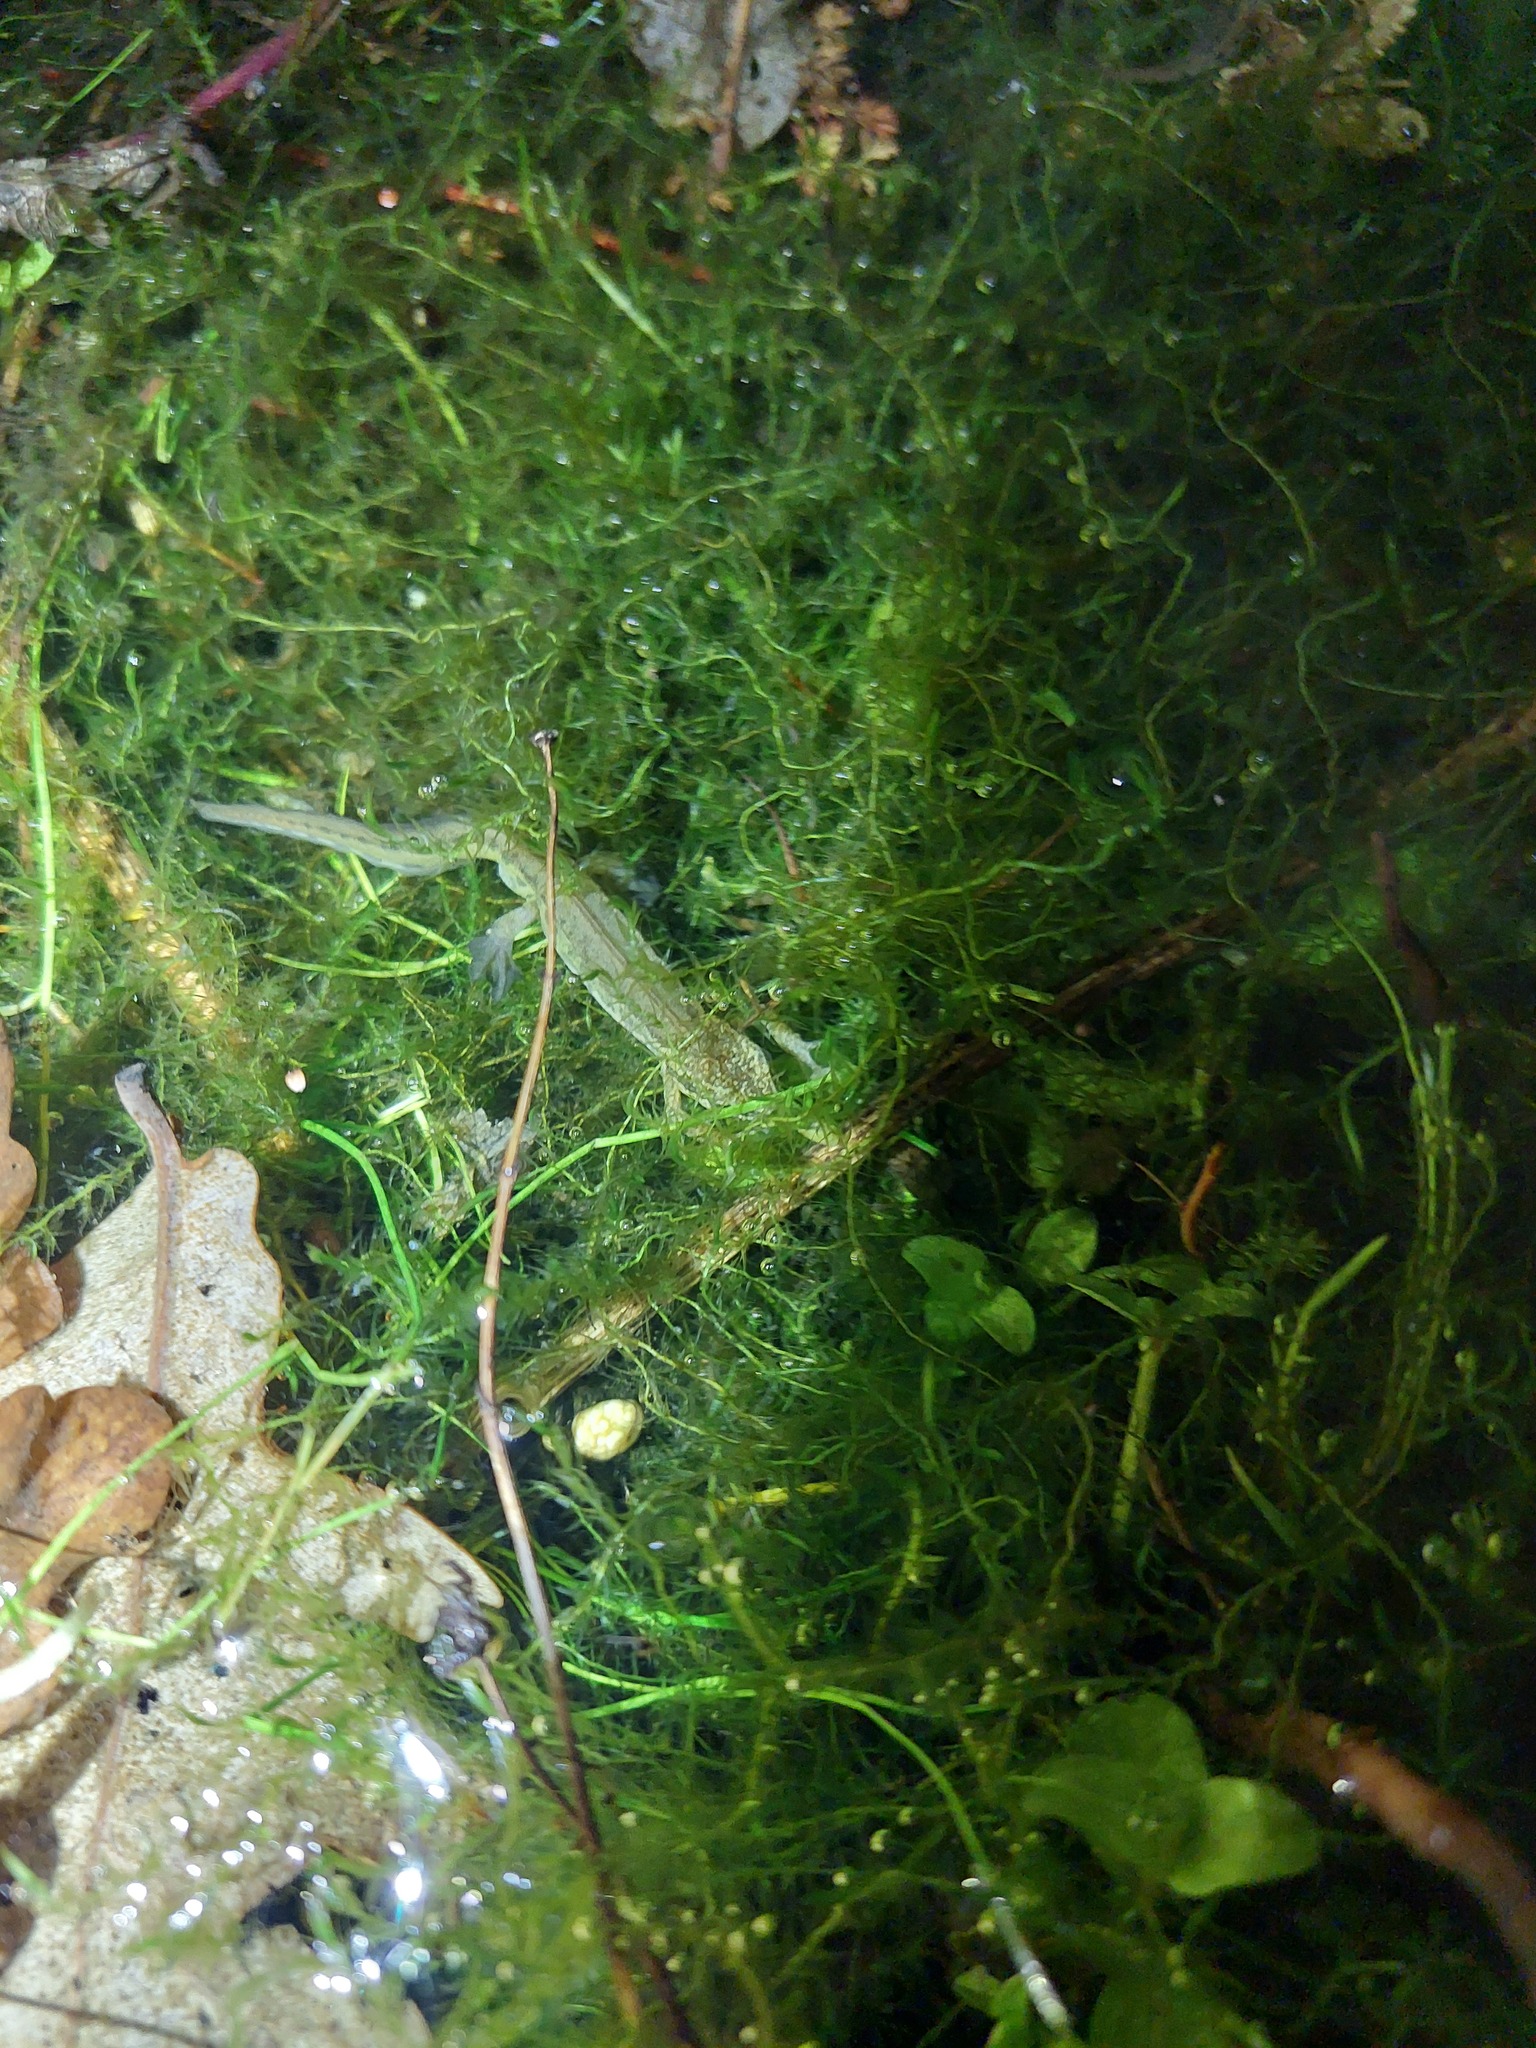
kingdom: Animalia
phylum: Chordata
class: Amphibia
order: Caudata
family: Salamandridae
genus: Lissotriton
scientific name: Lissotriton helveticus
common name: Palmate newt
